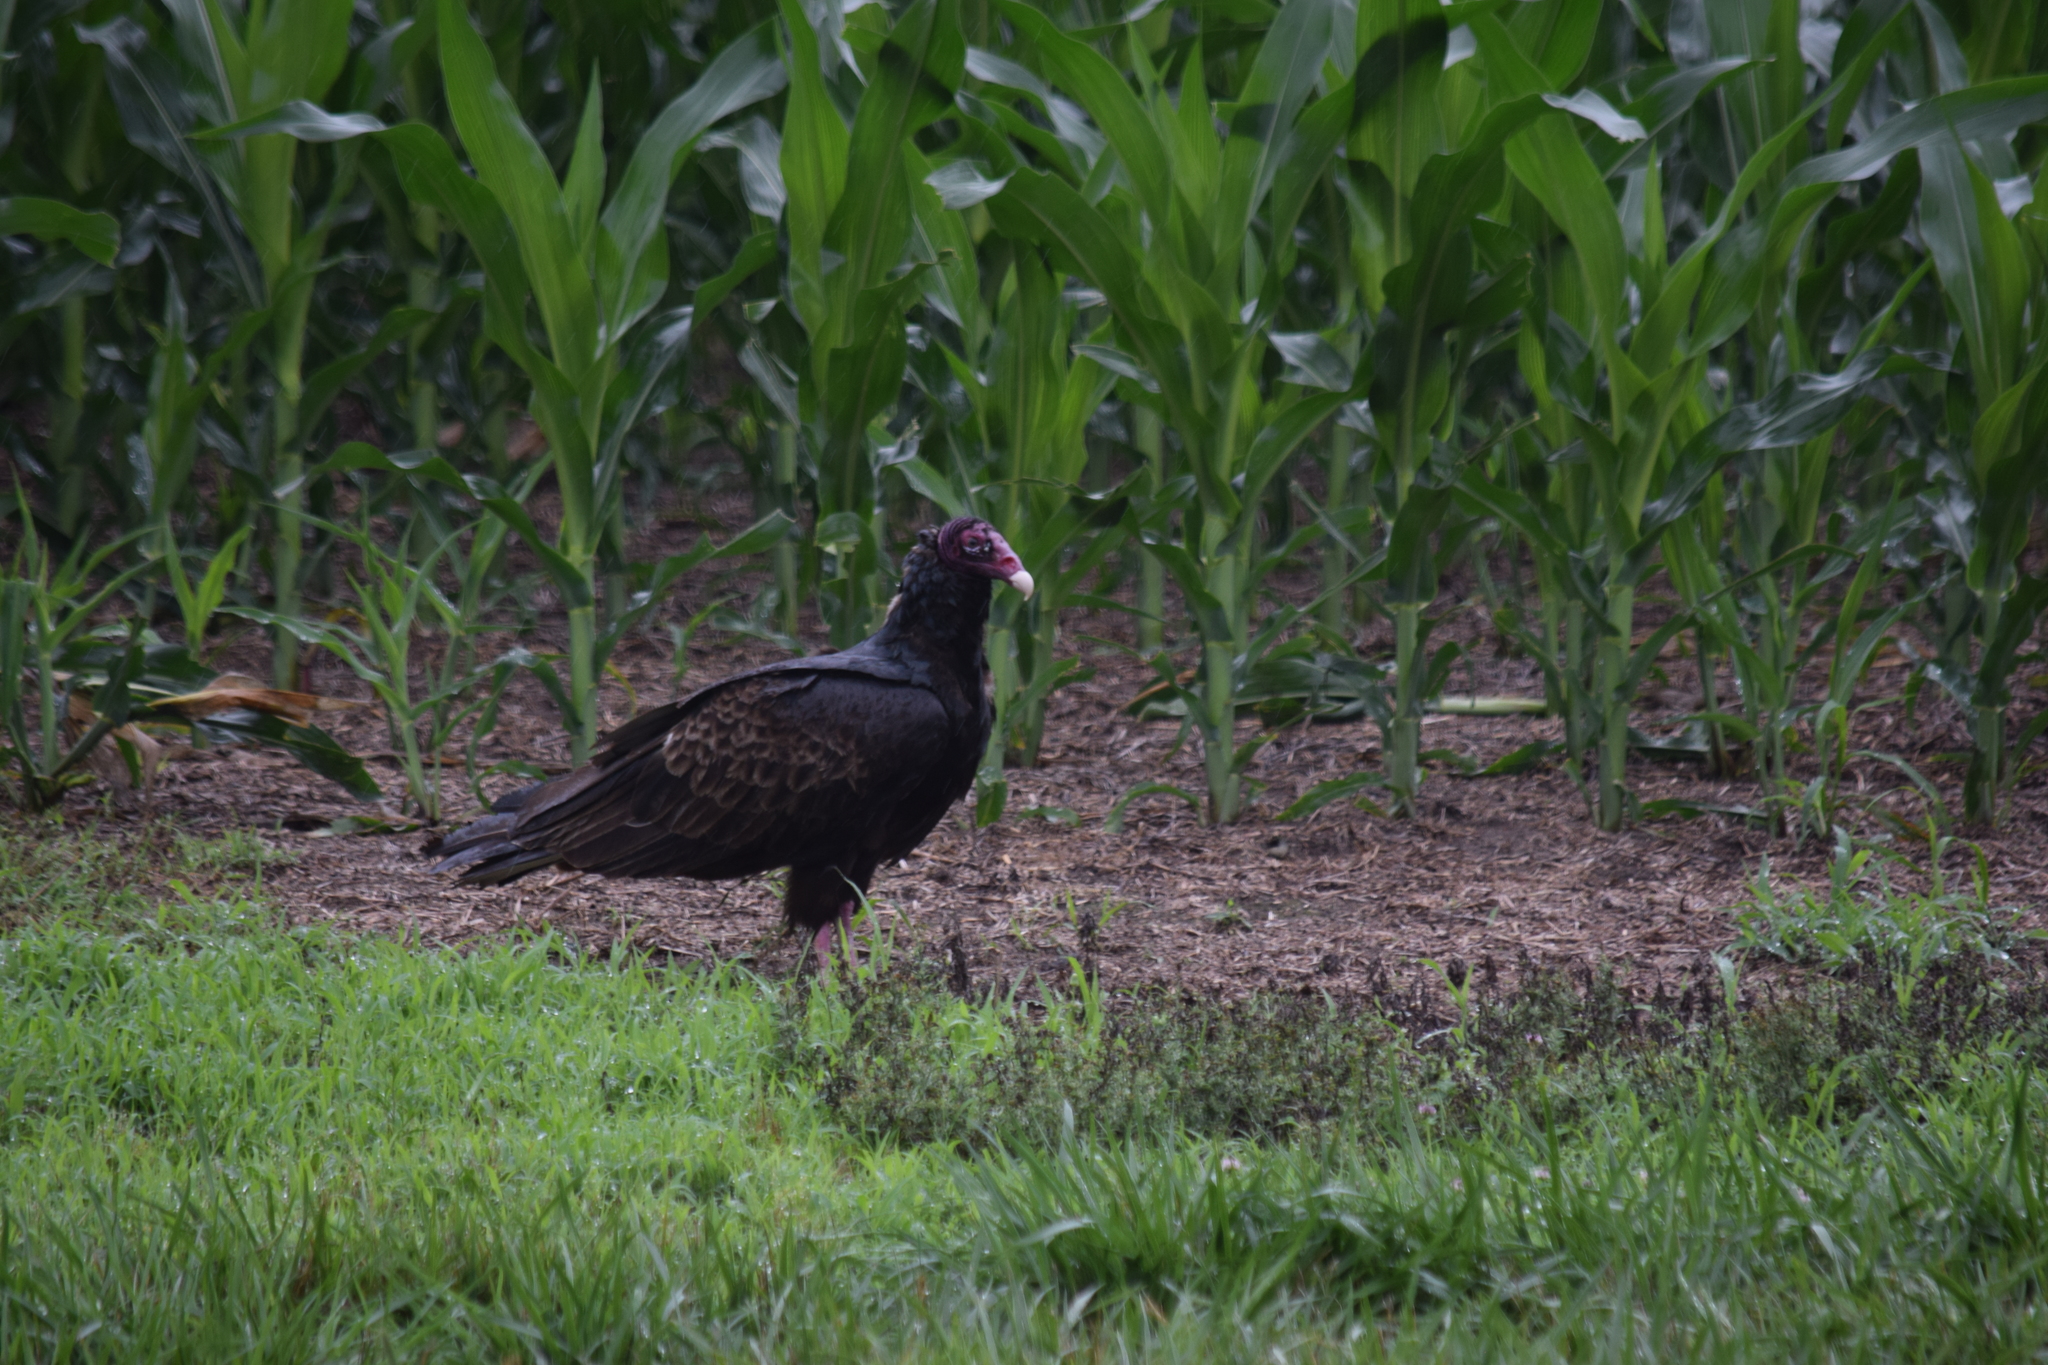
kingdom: Animalia
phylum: Chordata
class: Aves
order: Accipitriformes
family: Cathartidae
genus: Cathartes
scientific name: Cathartes aura
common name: Turkey vulture
